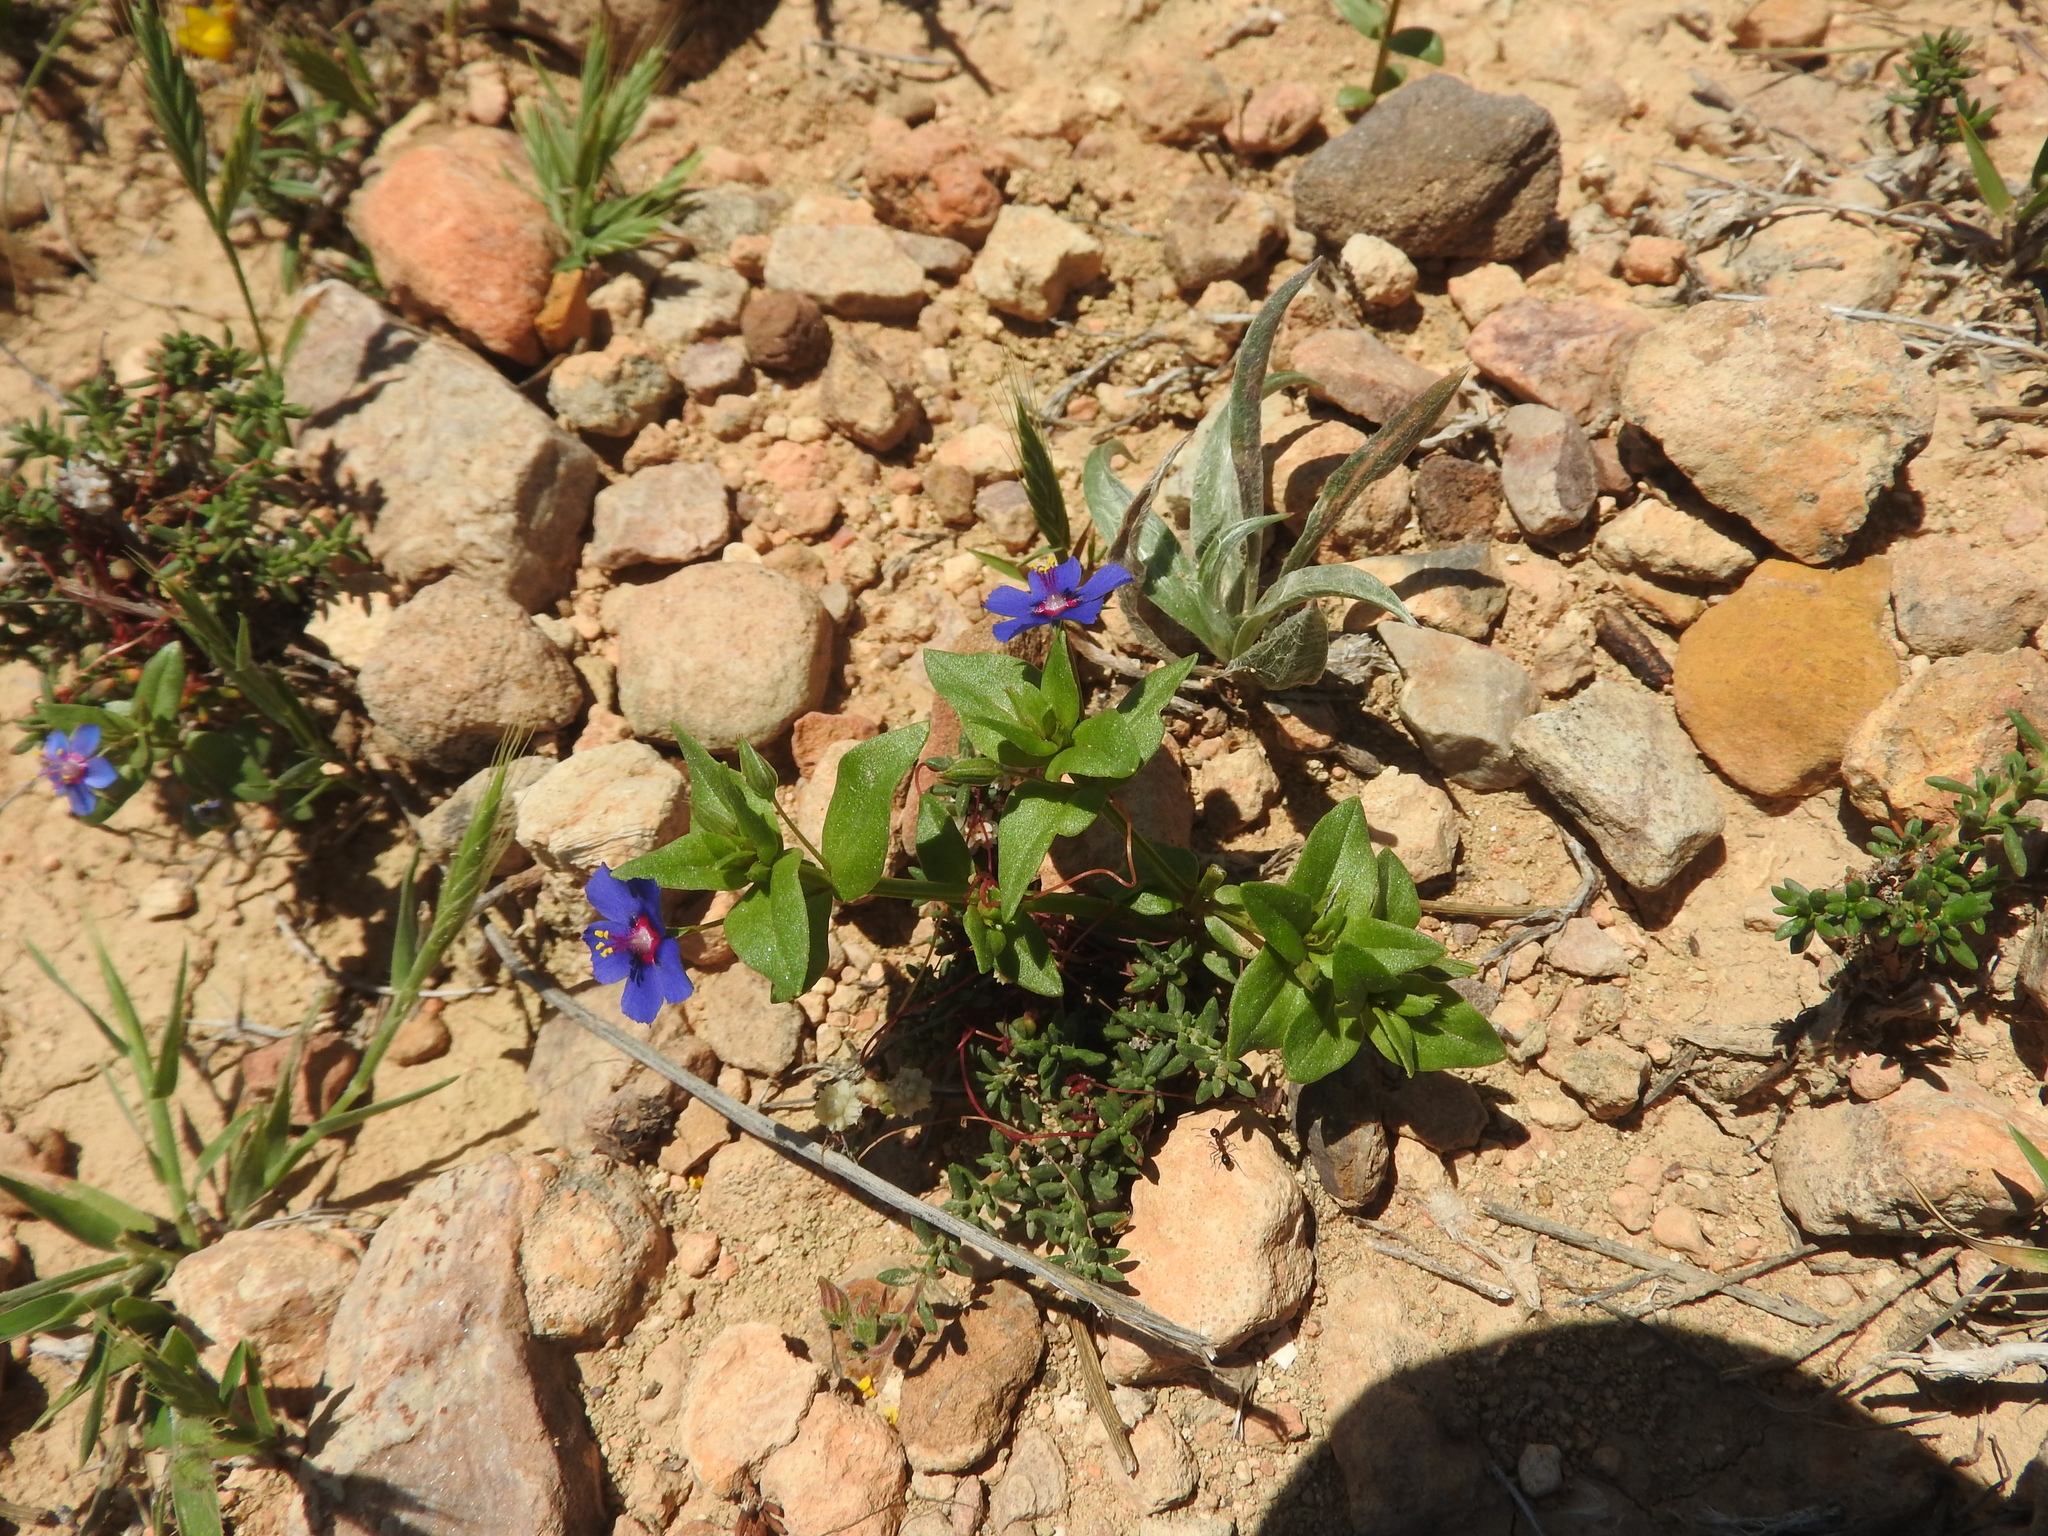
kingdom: Plantae
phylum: Tracheophyta
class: Magnoliopsida
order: Ericales
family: Primulaceae
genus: Lysimachia
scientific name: Lysimachia loeflingii
